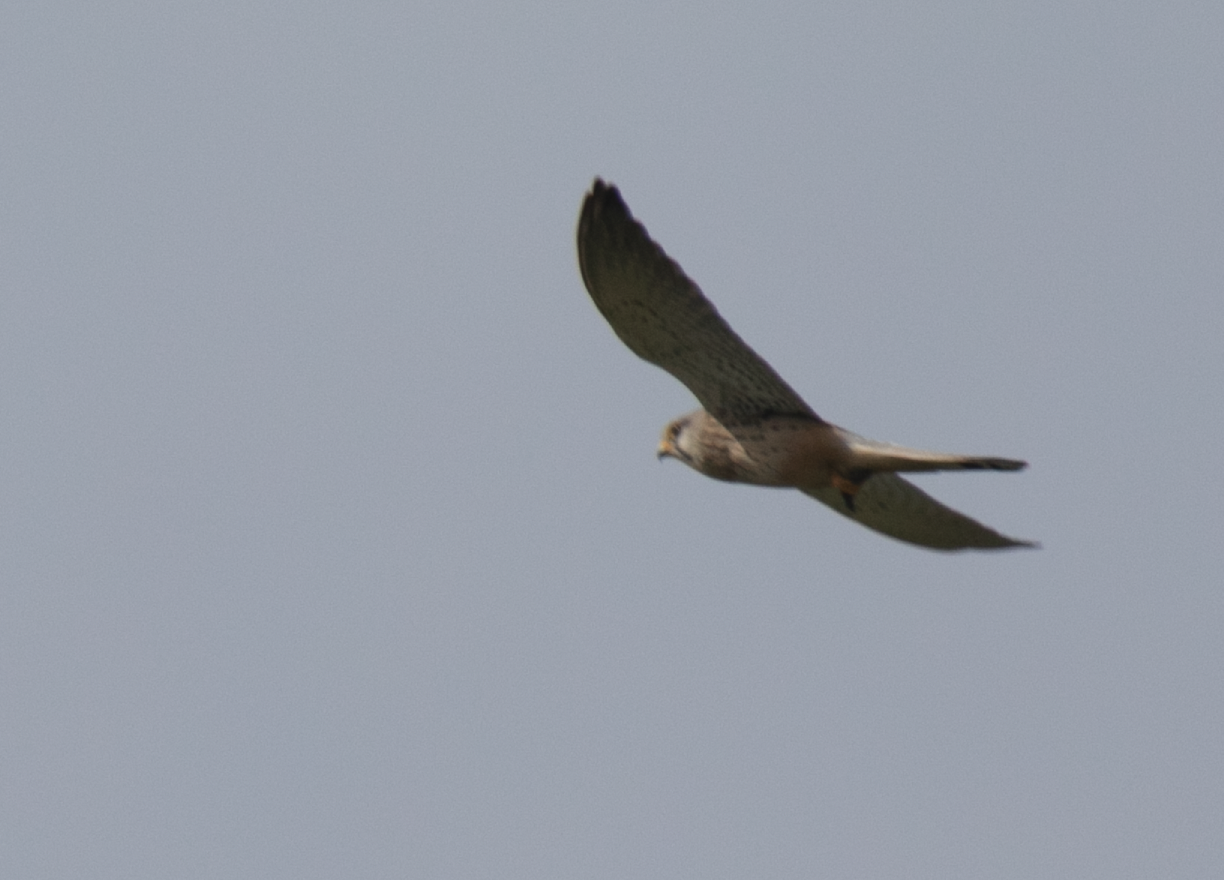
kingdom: Animalia
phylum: Chordata
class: Aves
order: Falconiformes
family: Falconidae
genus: Falco
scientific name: Falco tinnunculus
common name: Common kestrel
